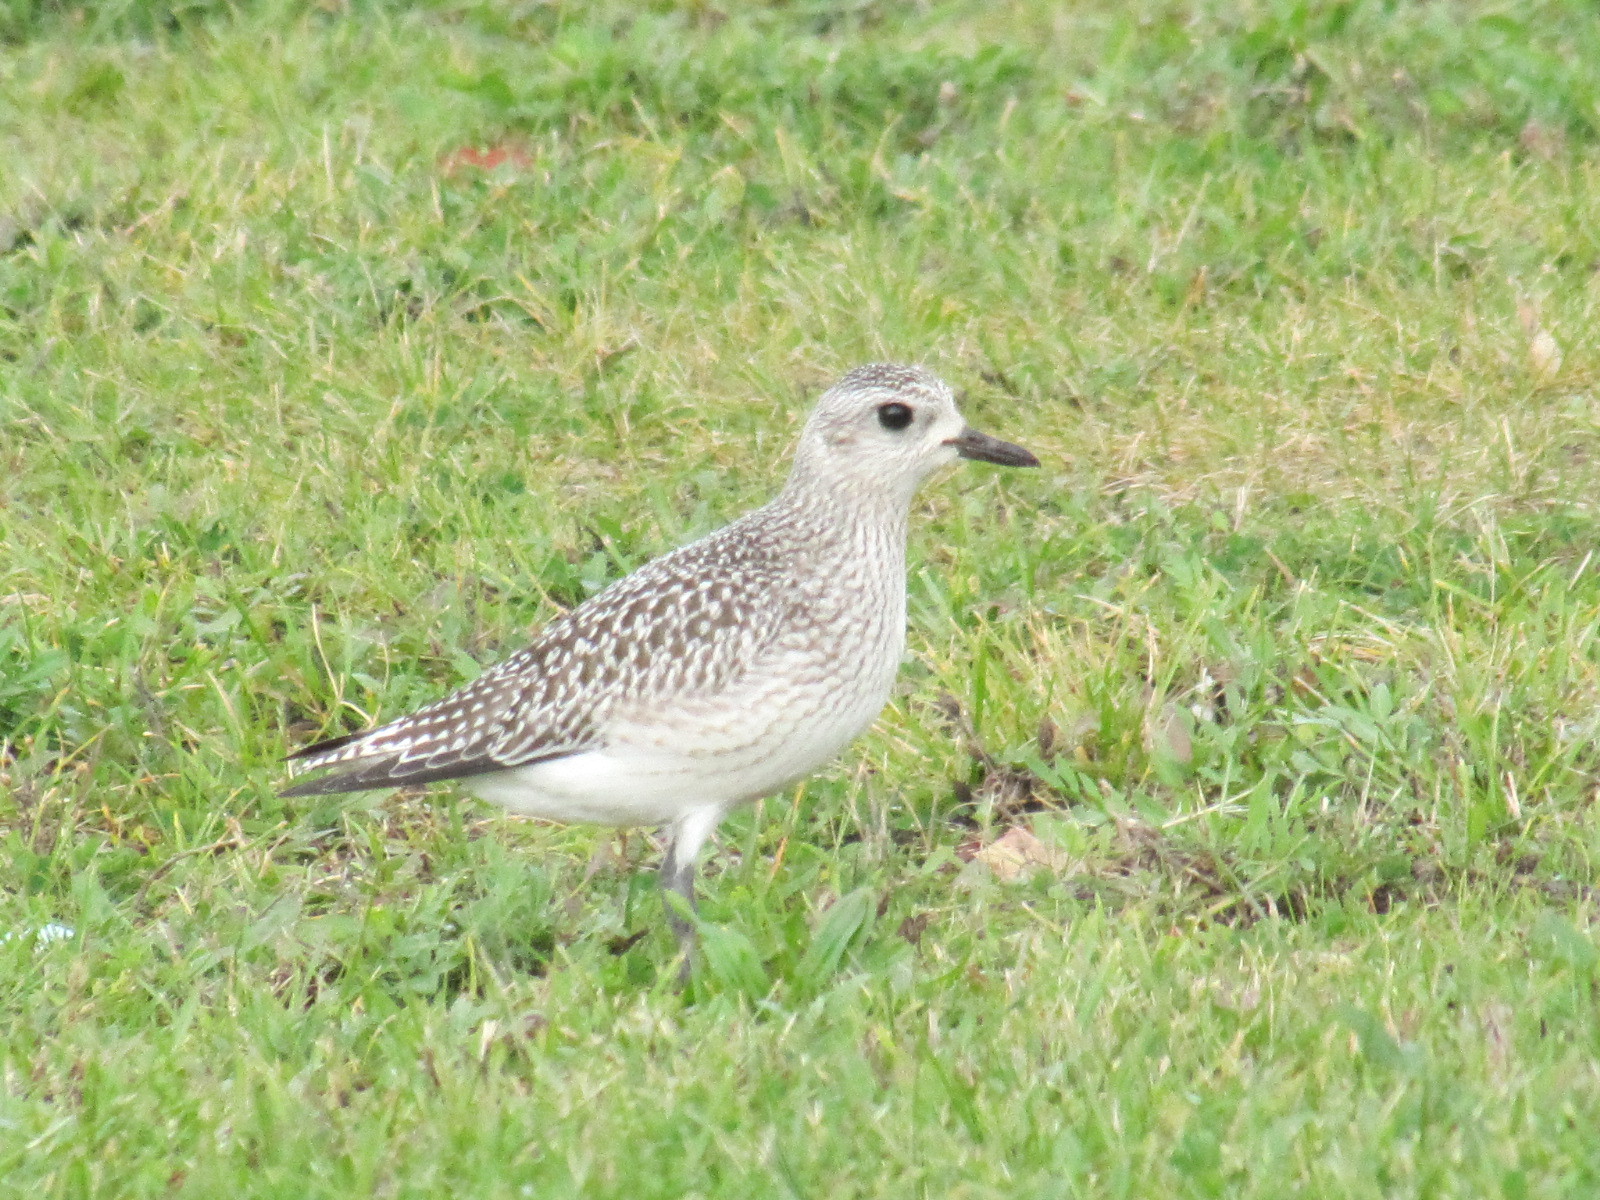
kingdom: Animalia
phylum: Chordata
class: Aves
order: Charadriiformes
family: Charadriidae
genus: Pluvialis
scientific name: Pluvialis squatarola
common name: Grey plover
